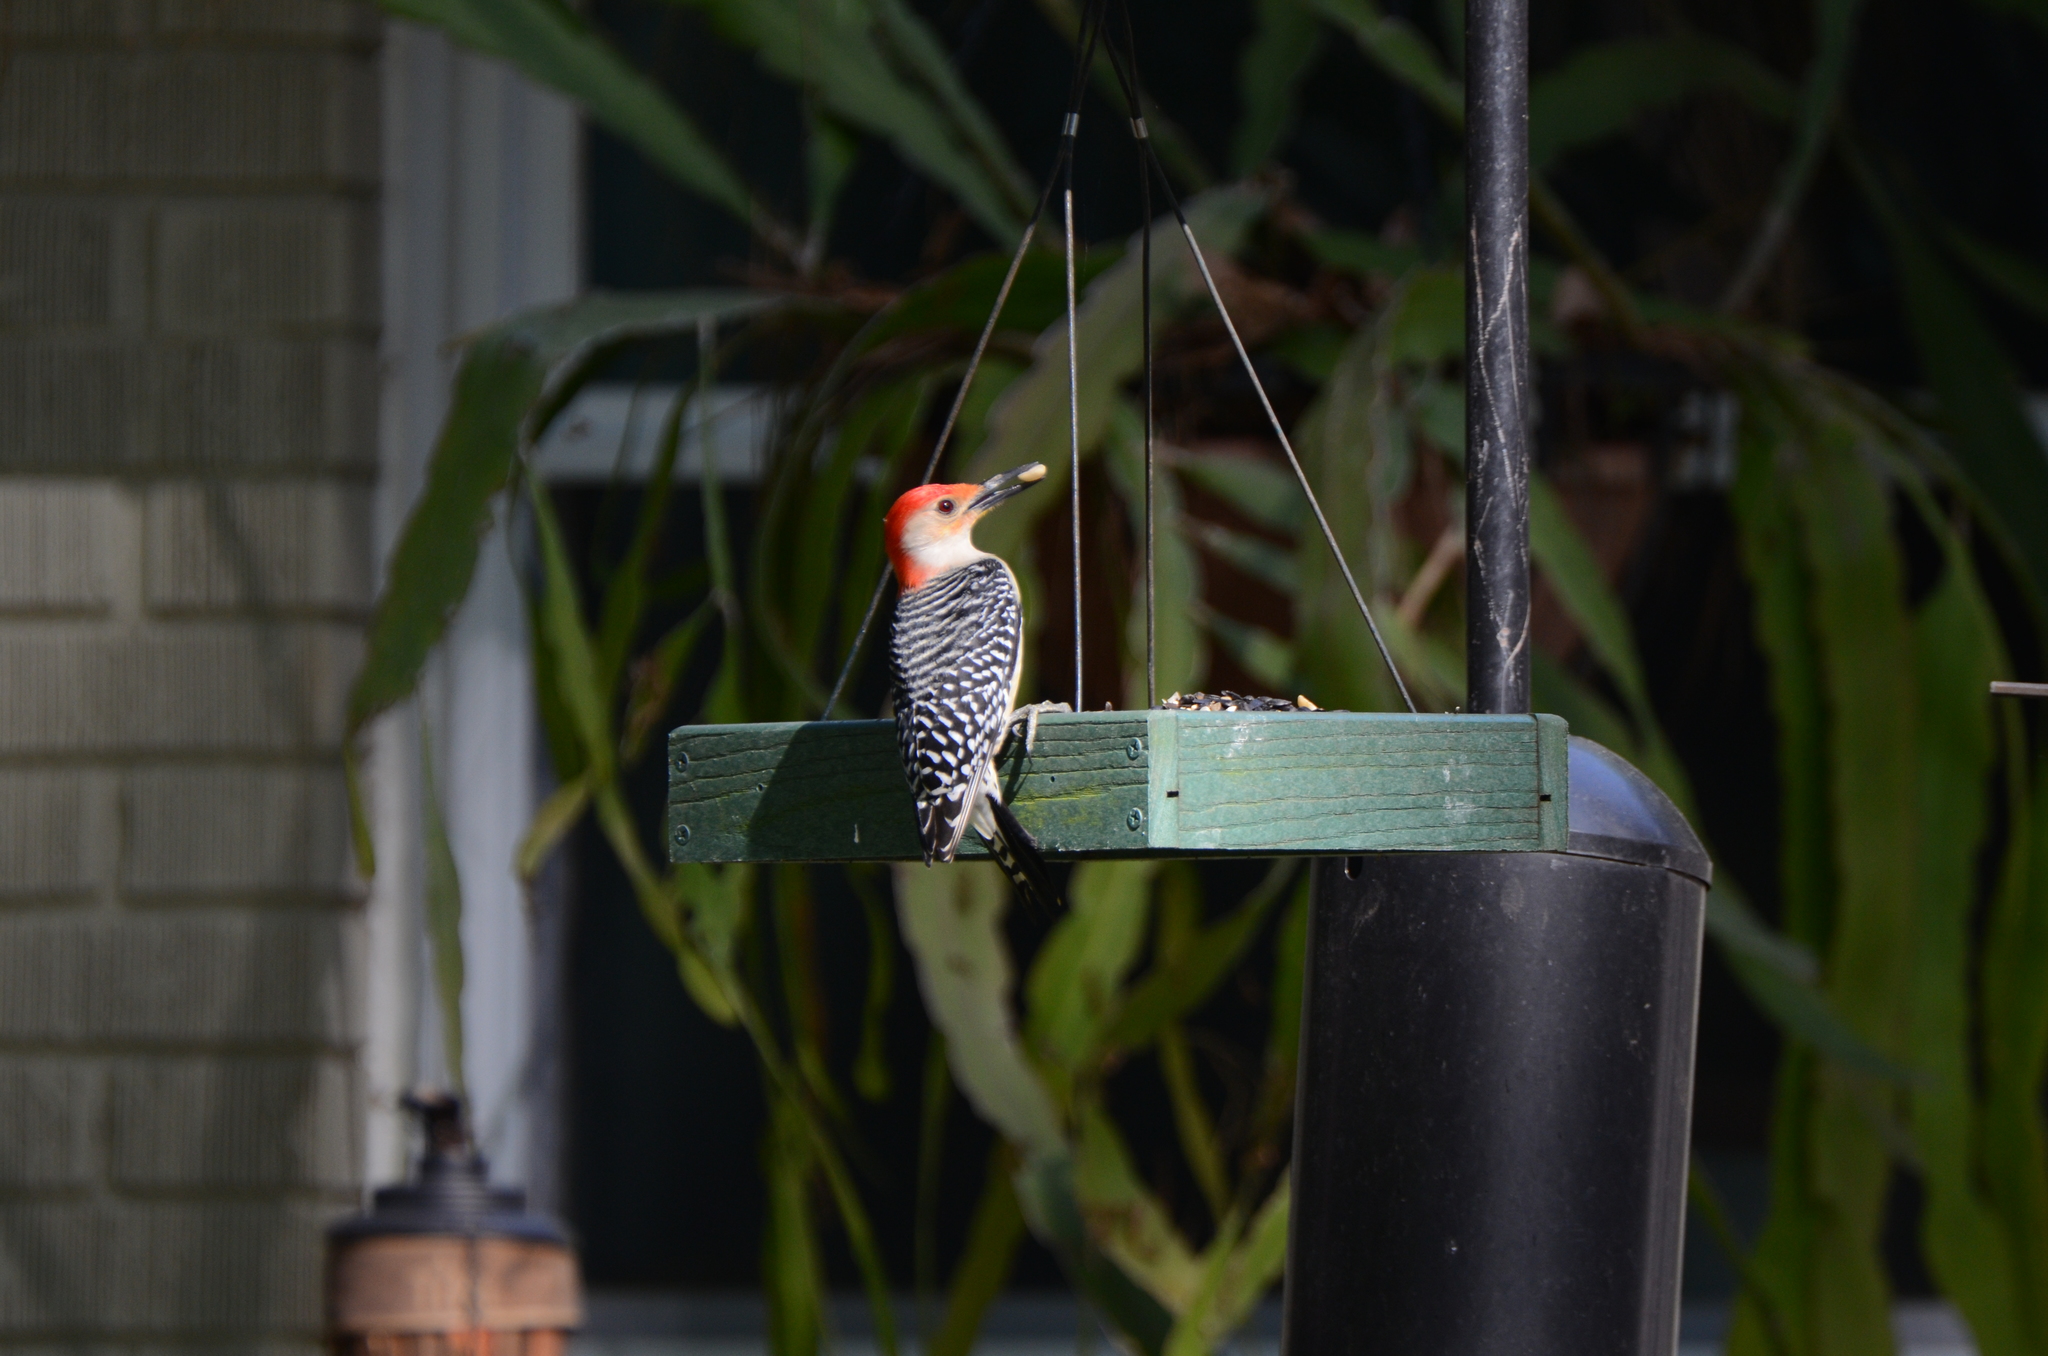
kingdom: Animalia
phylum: Chordata
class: Aves
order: Piciformes
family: Picidae
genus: Melanerpes
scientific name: Melanerpes carolinus
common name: Red-bellied woodpecker
